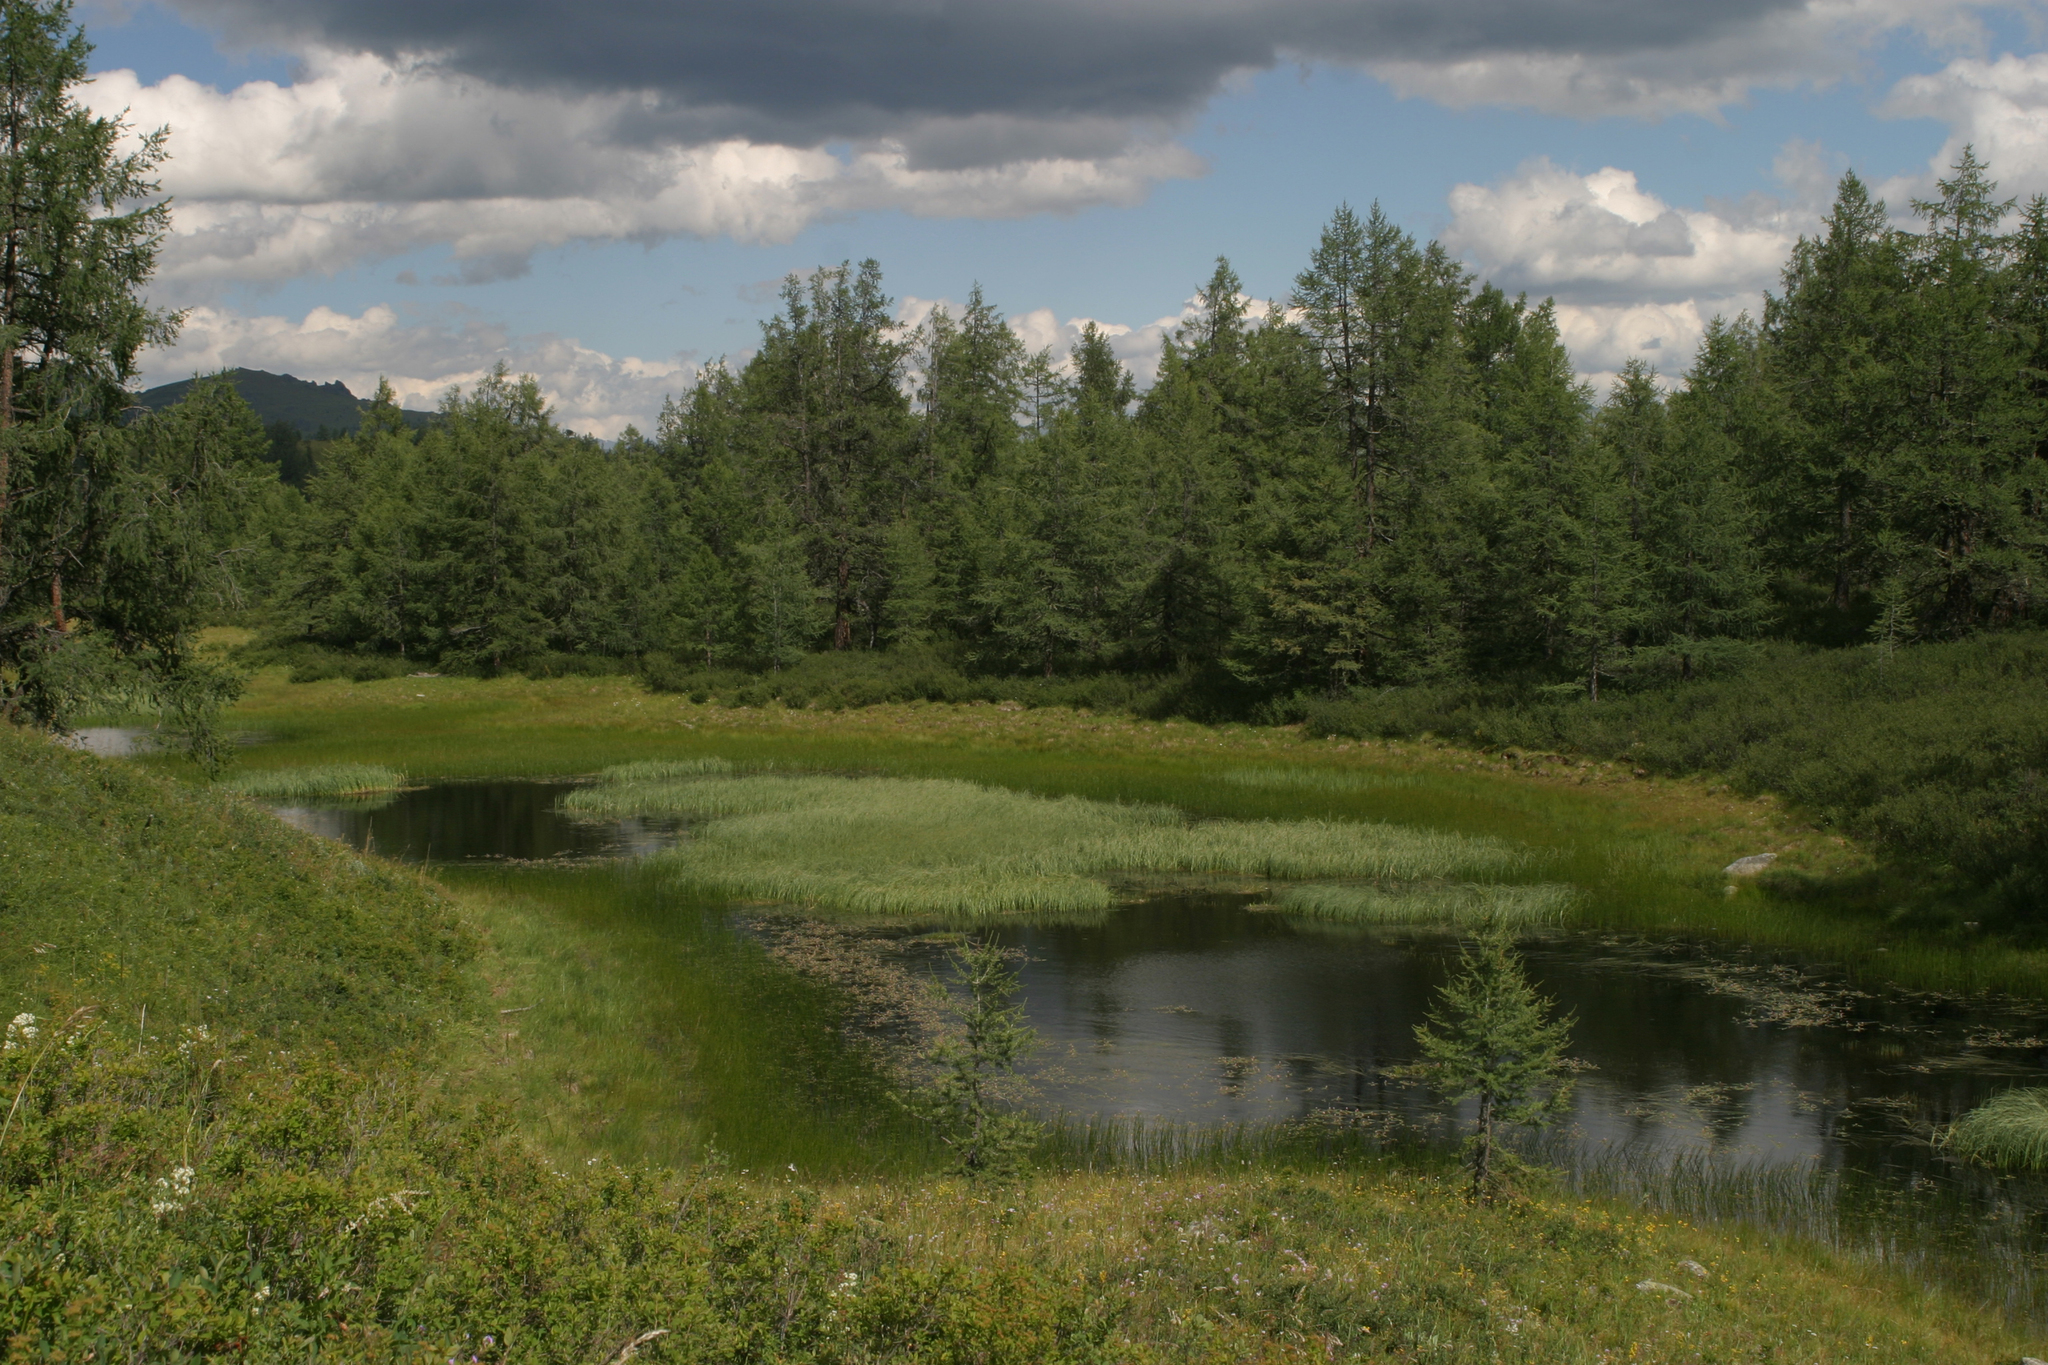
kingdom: Plantae
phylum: Tracheophyta
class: Pinopsida
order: Pinales
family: Pinaceae
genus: Larix
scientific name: Larix sibirica
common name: Siberian larch
